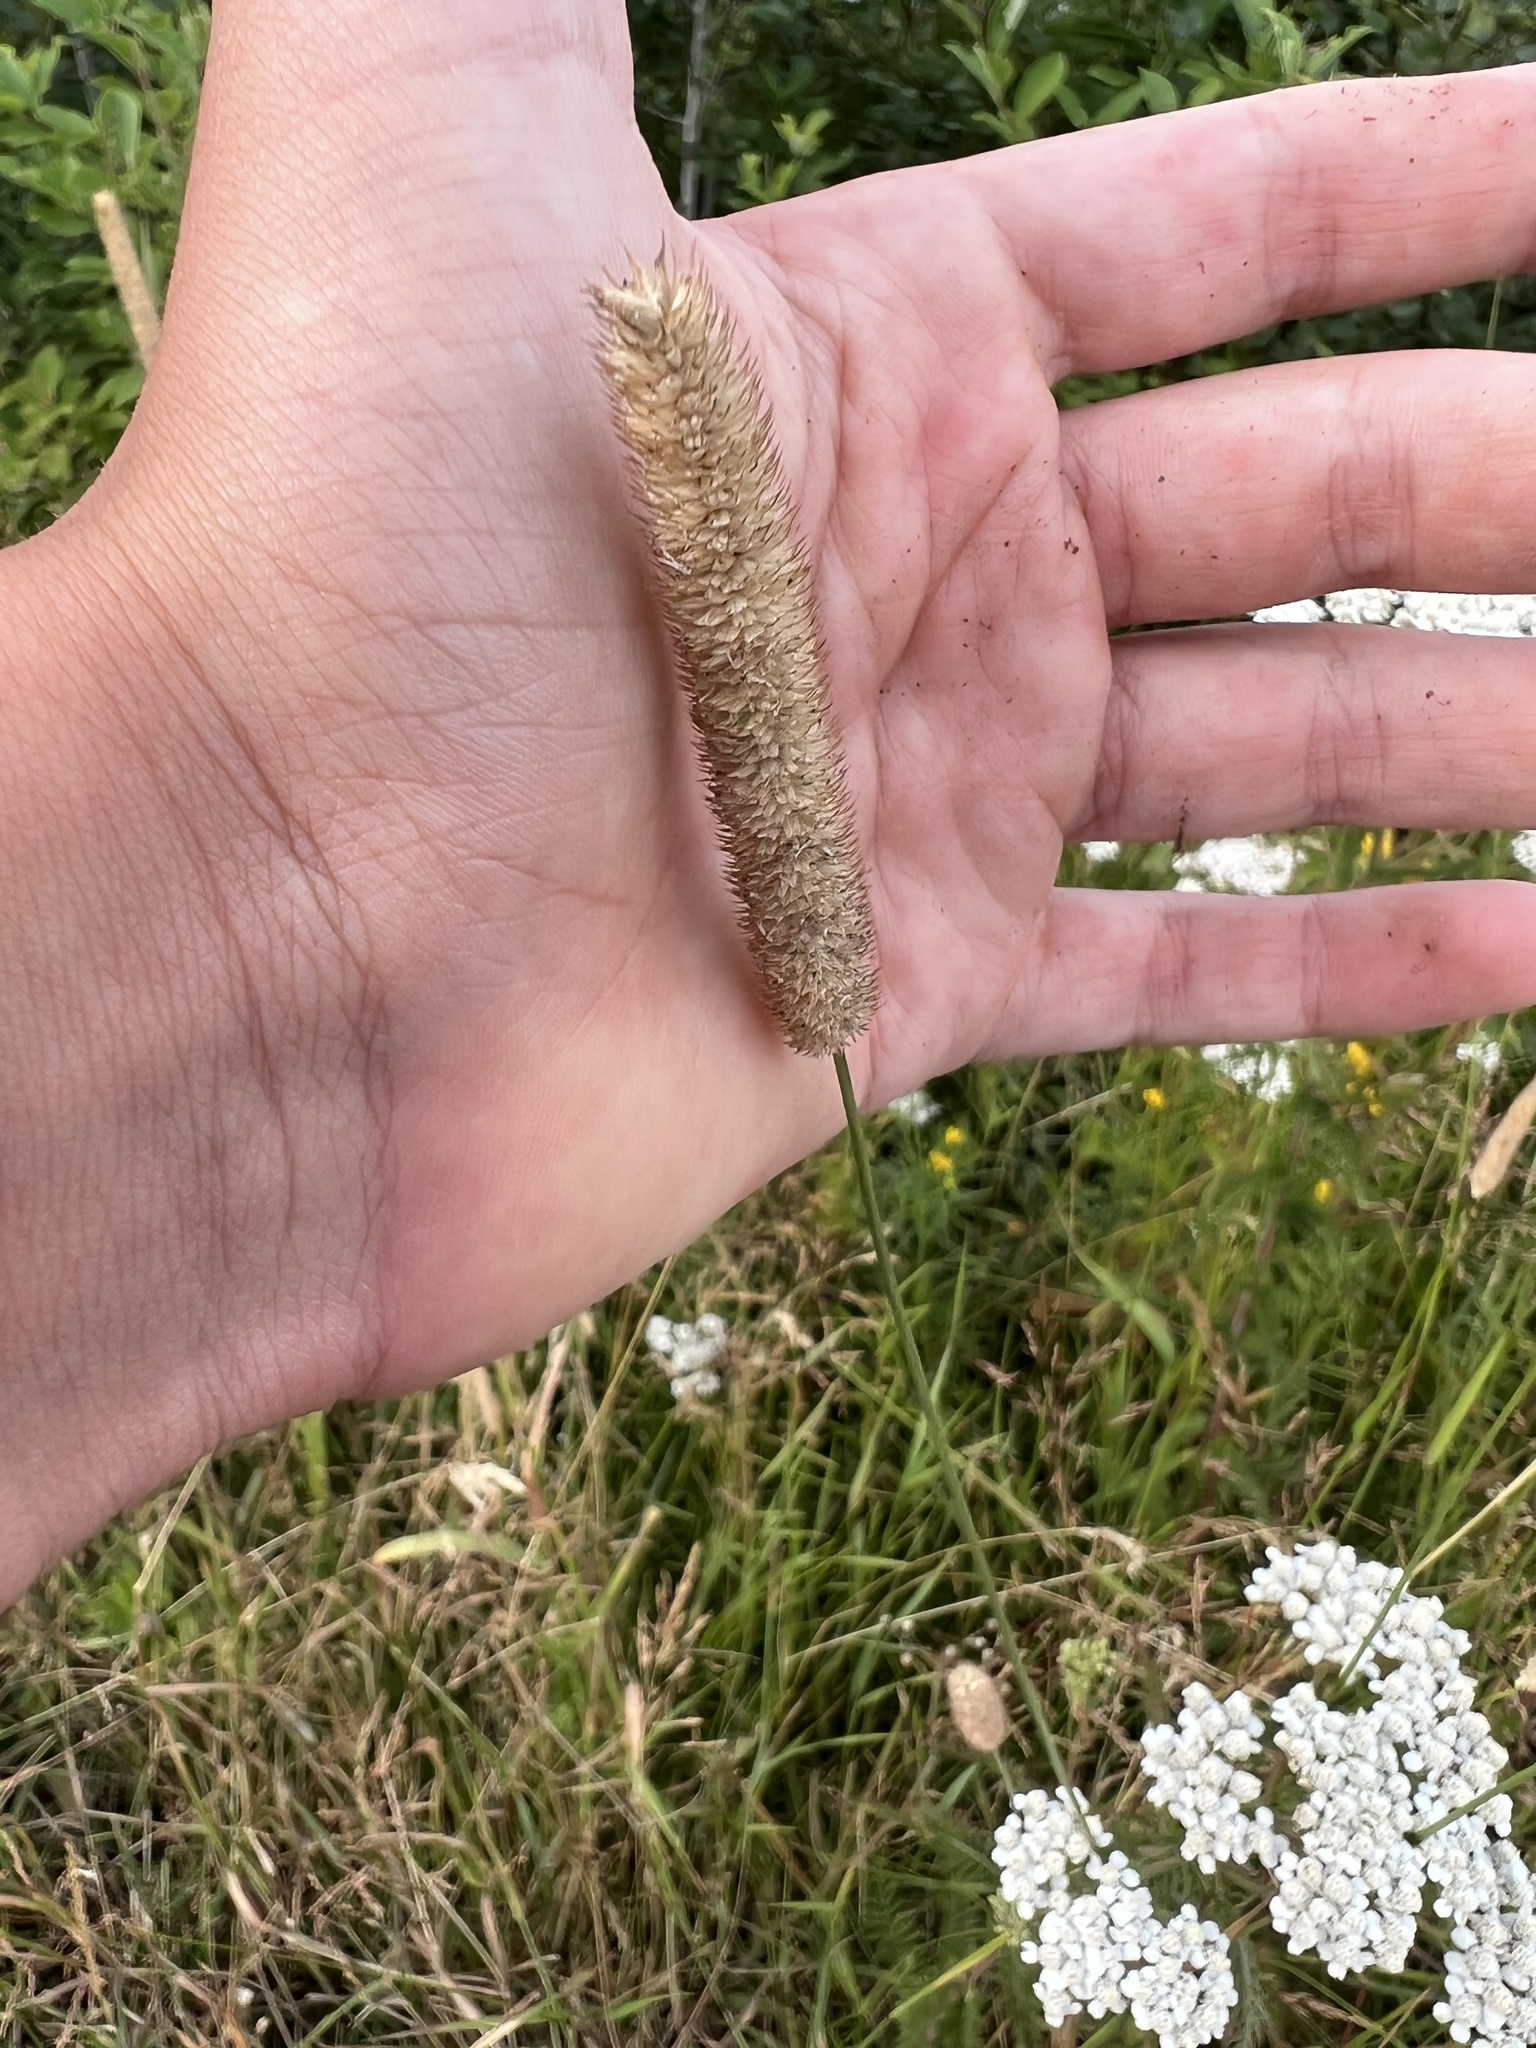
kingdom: Plantae
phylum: Tracheophyta
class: Liliopsida
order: Poales
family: Poaceae
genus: Phleum
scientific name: Phleum pratense
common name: Timothy grass
